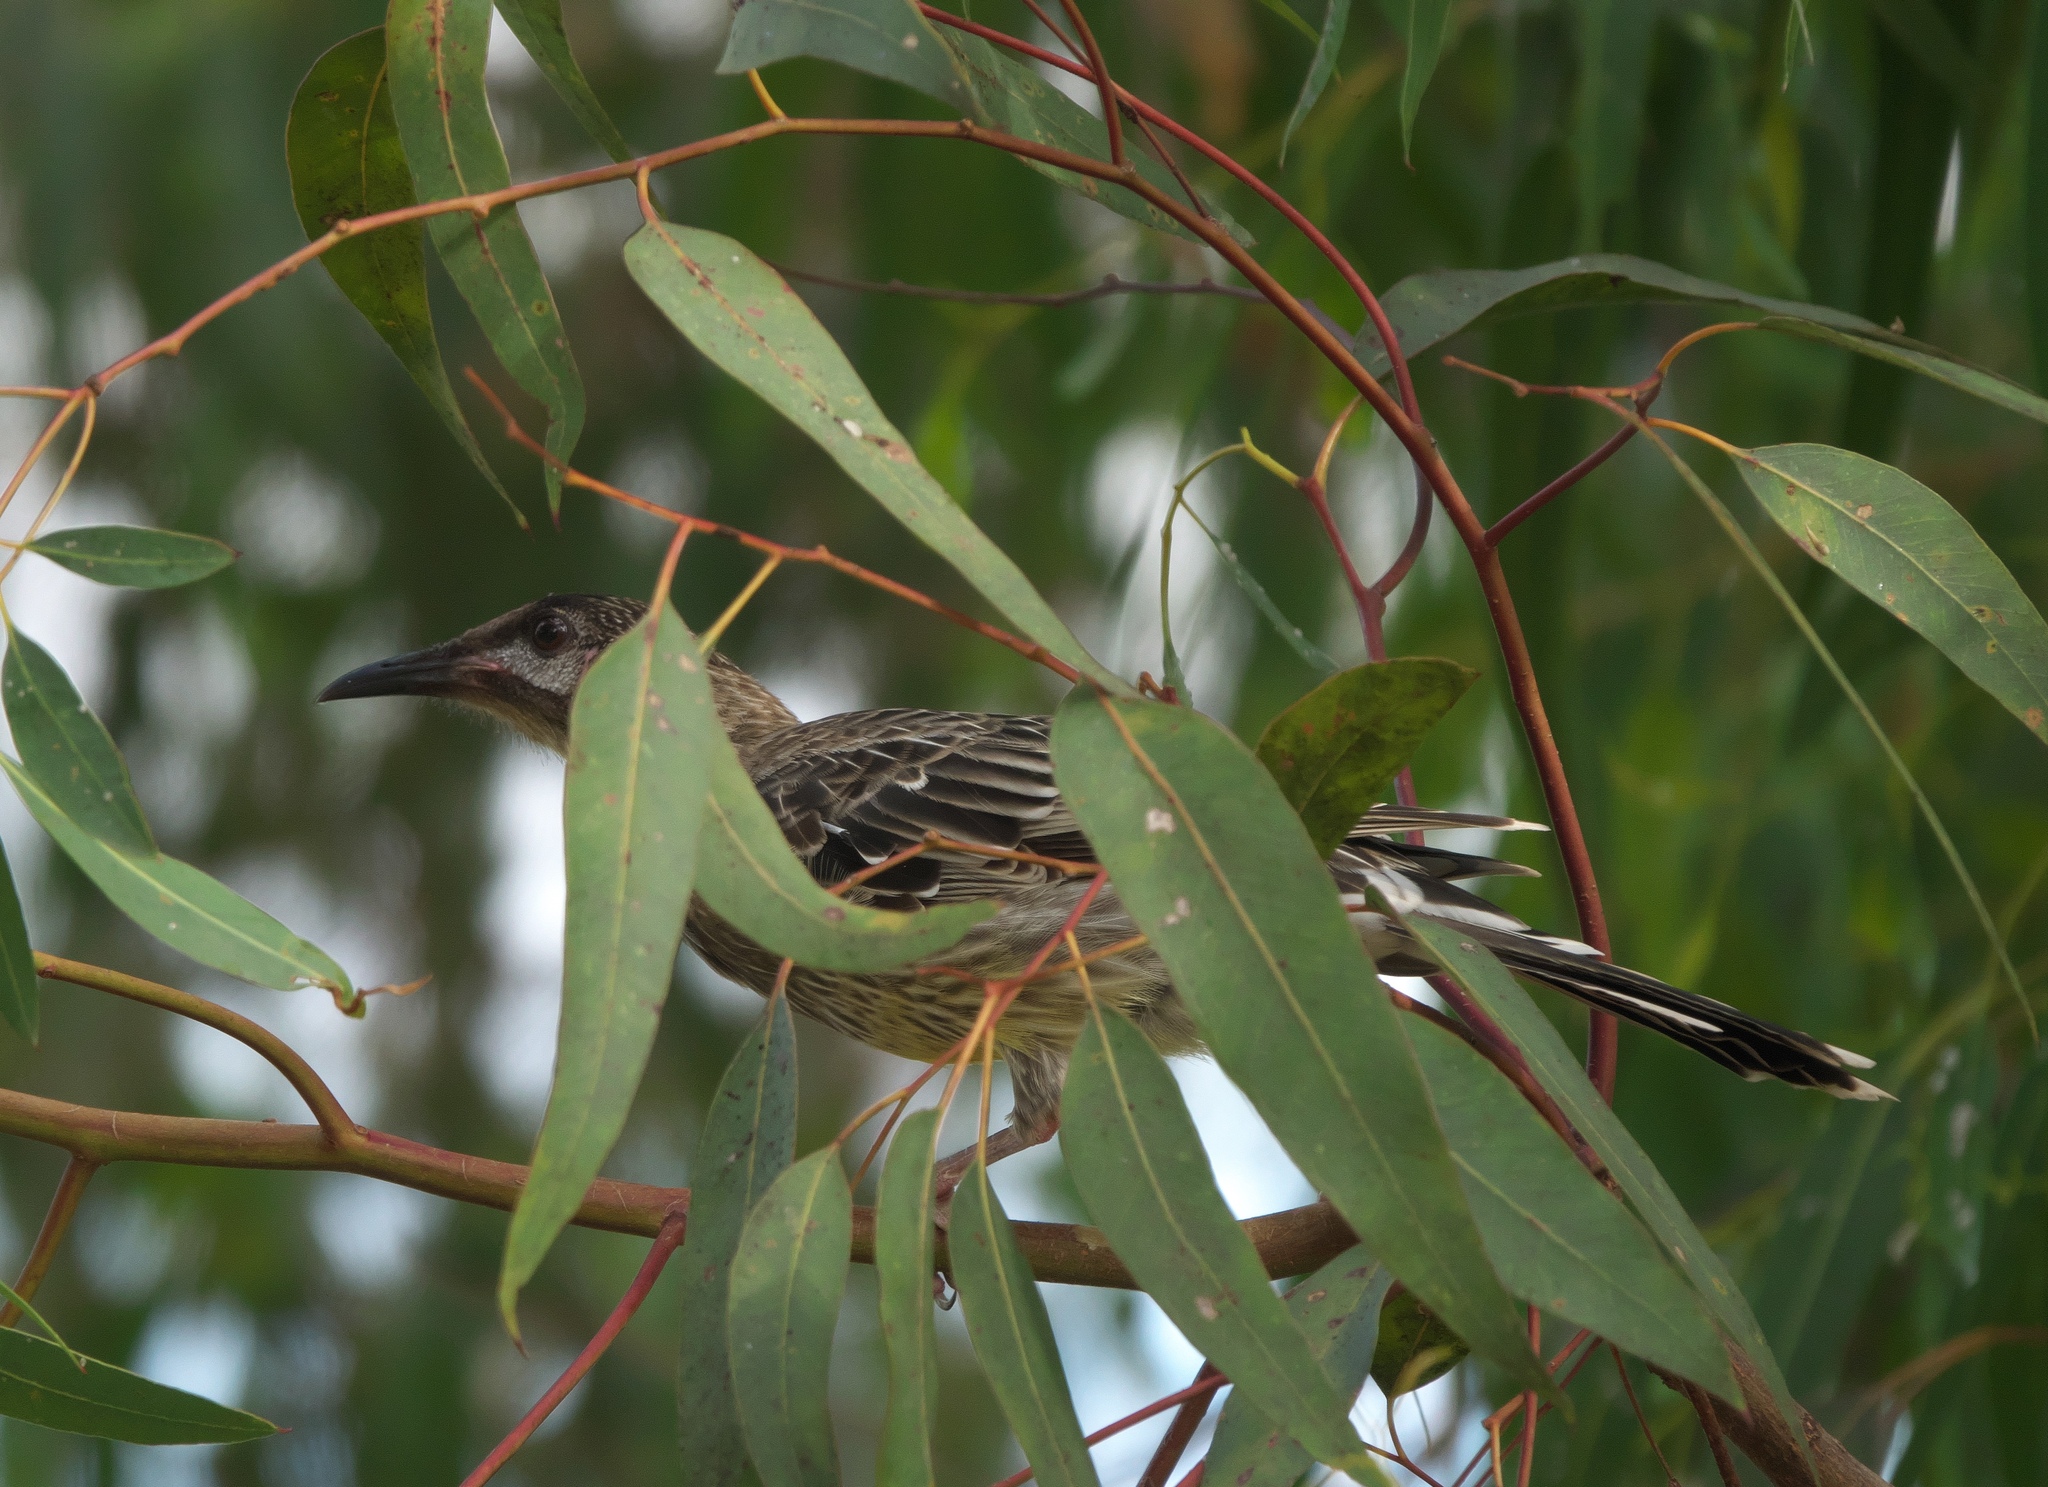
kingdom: Animalia
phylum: Chordata
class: Aves
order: Passeriformes
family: Meliphagidae
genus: Anthochaera
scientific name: Anthochaera carunculata
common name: Red wattlebird
